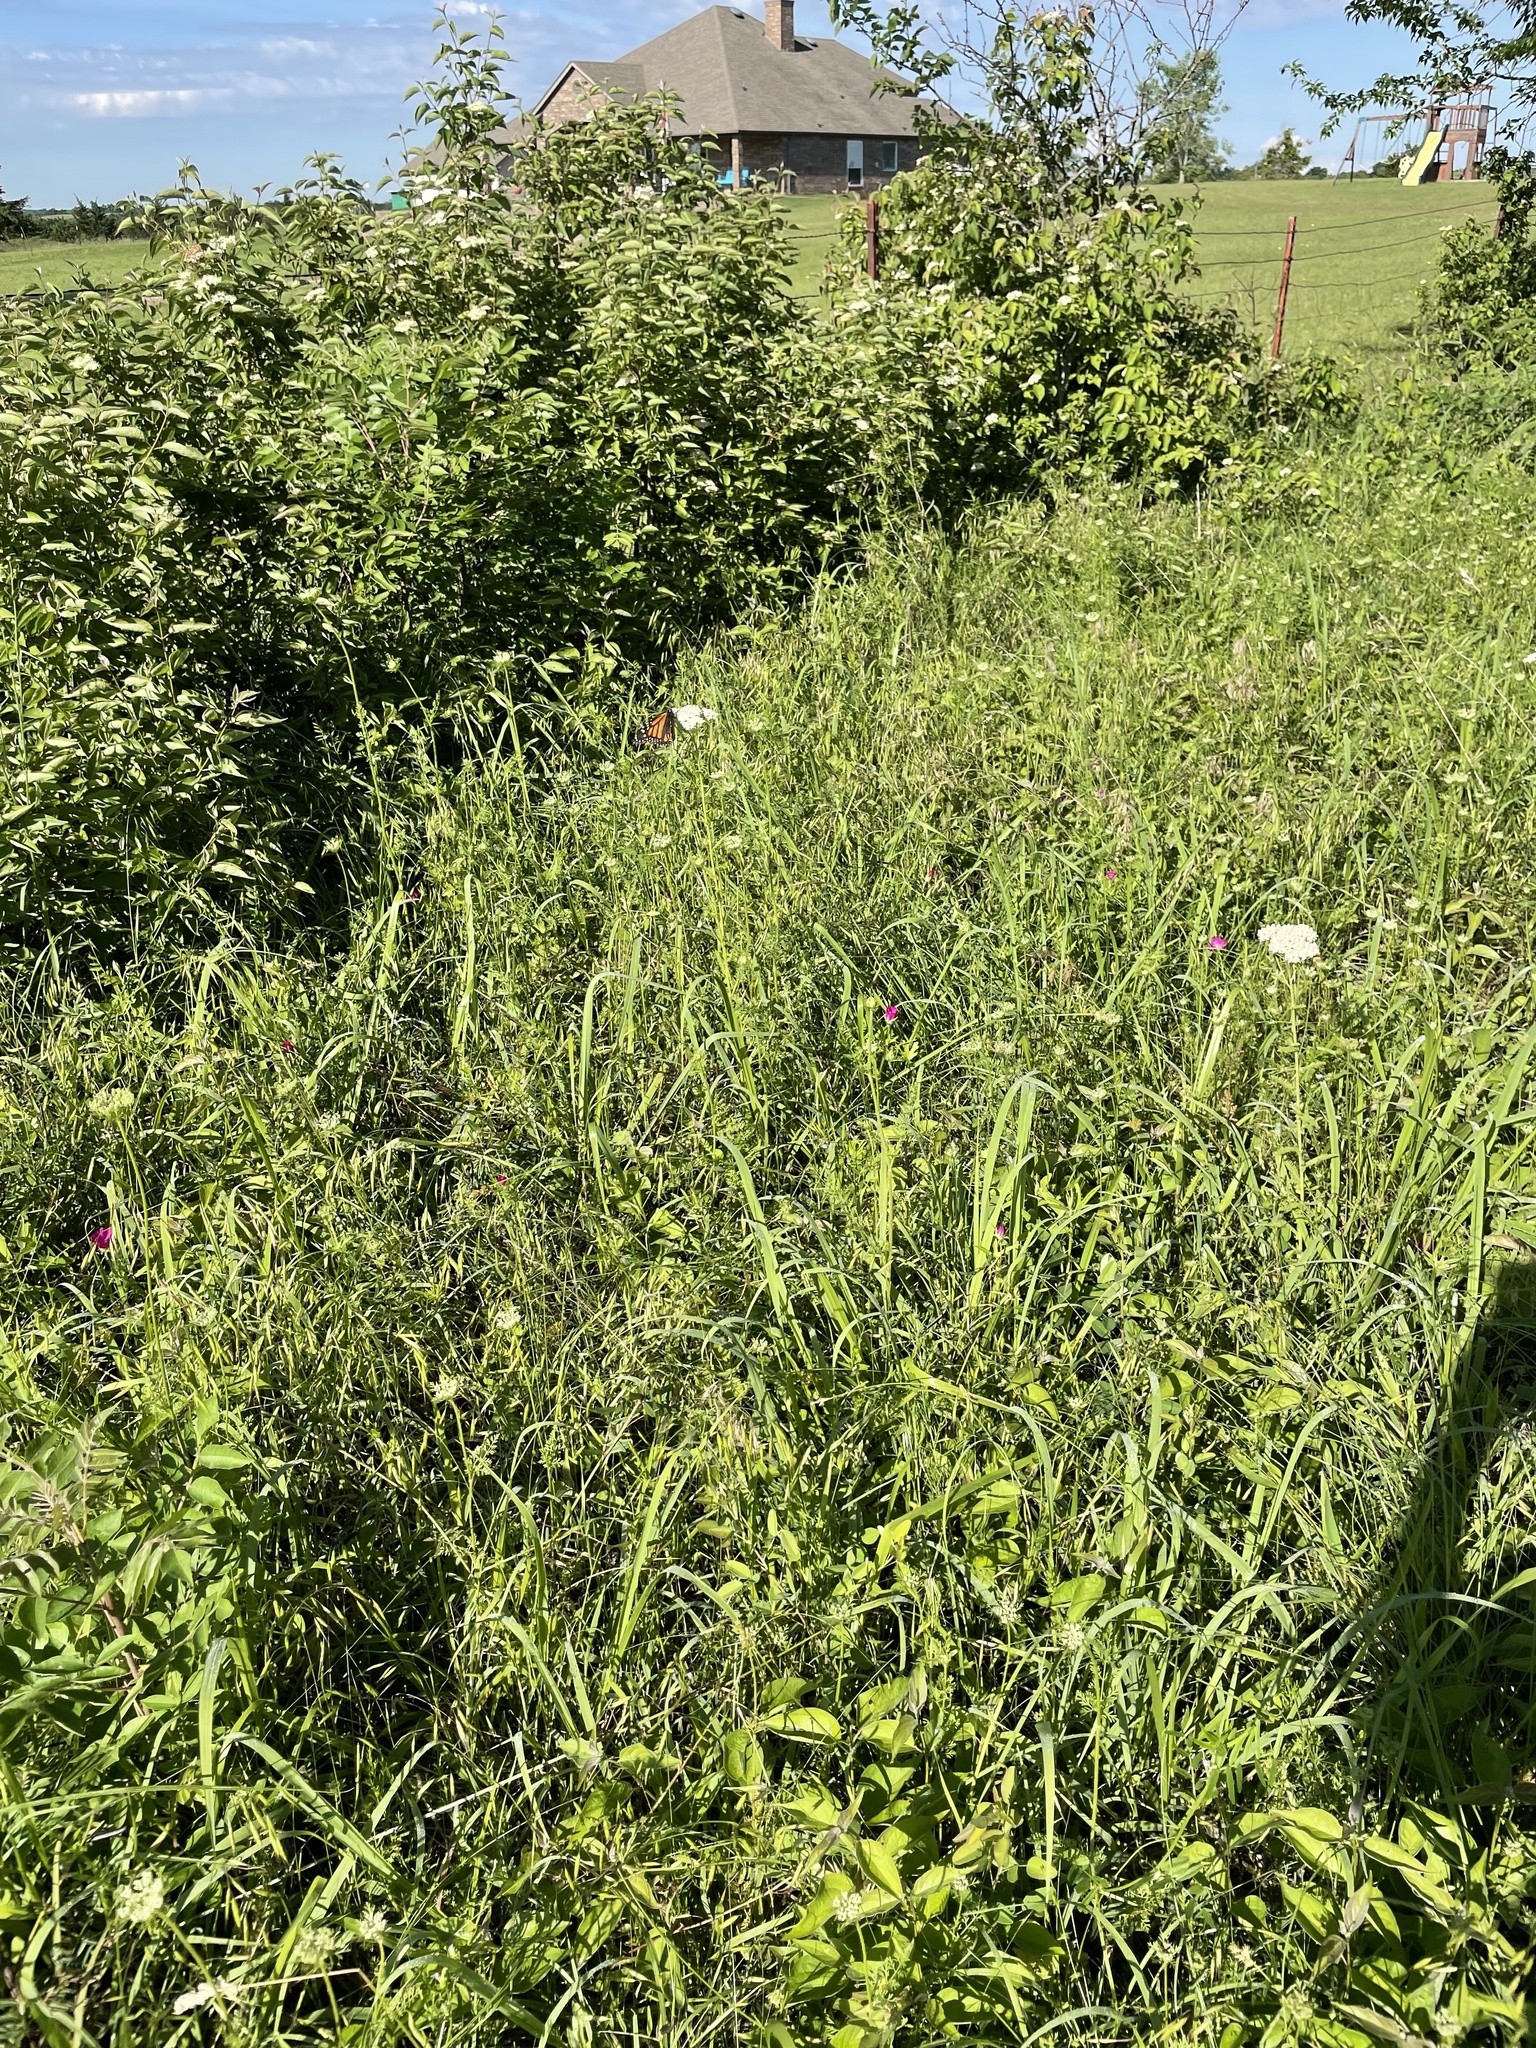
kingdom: Animalia
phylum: Arthropoda
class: Insecta
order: Lepidoptera
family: Nymphalidae
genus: Danaus
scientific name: Danaus plexippus
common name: Monarch
